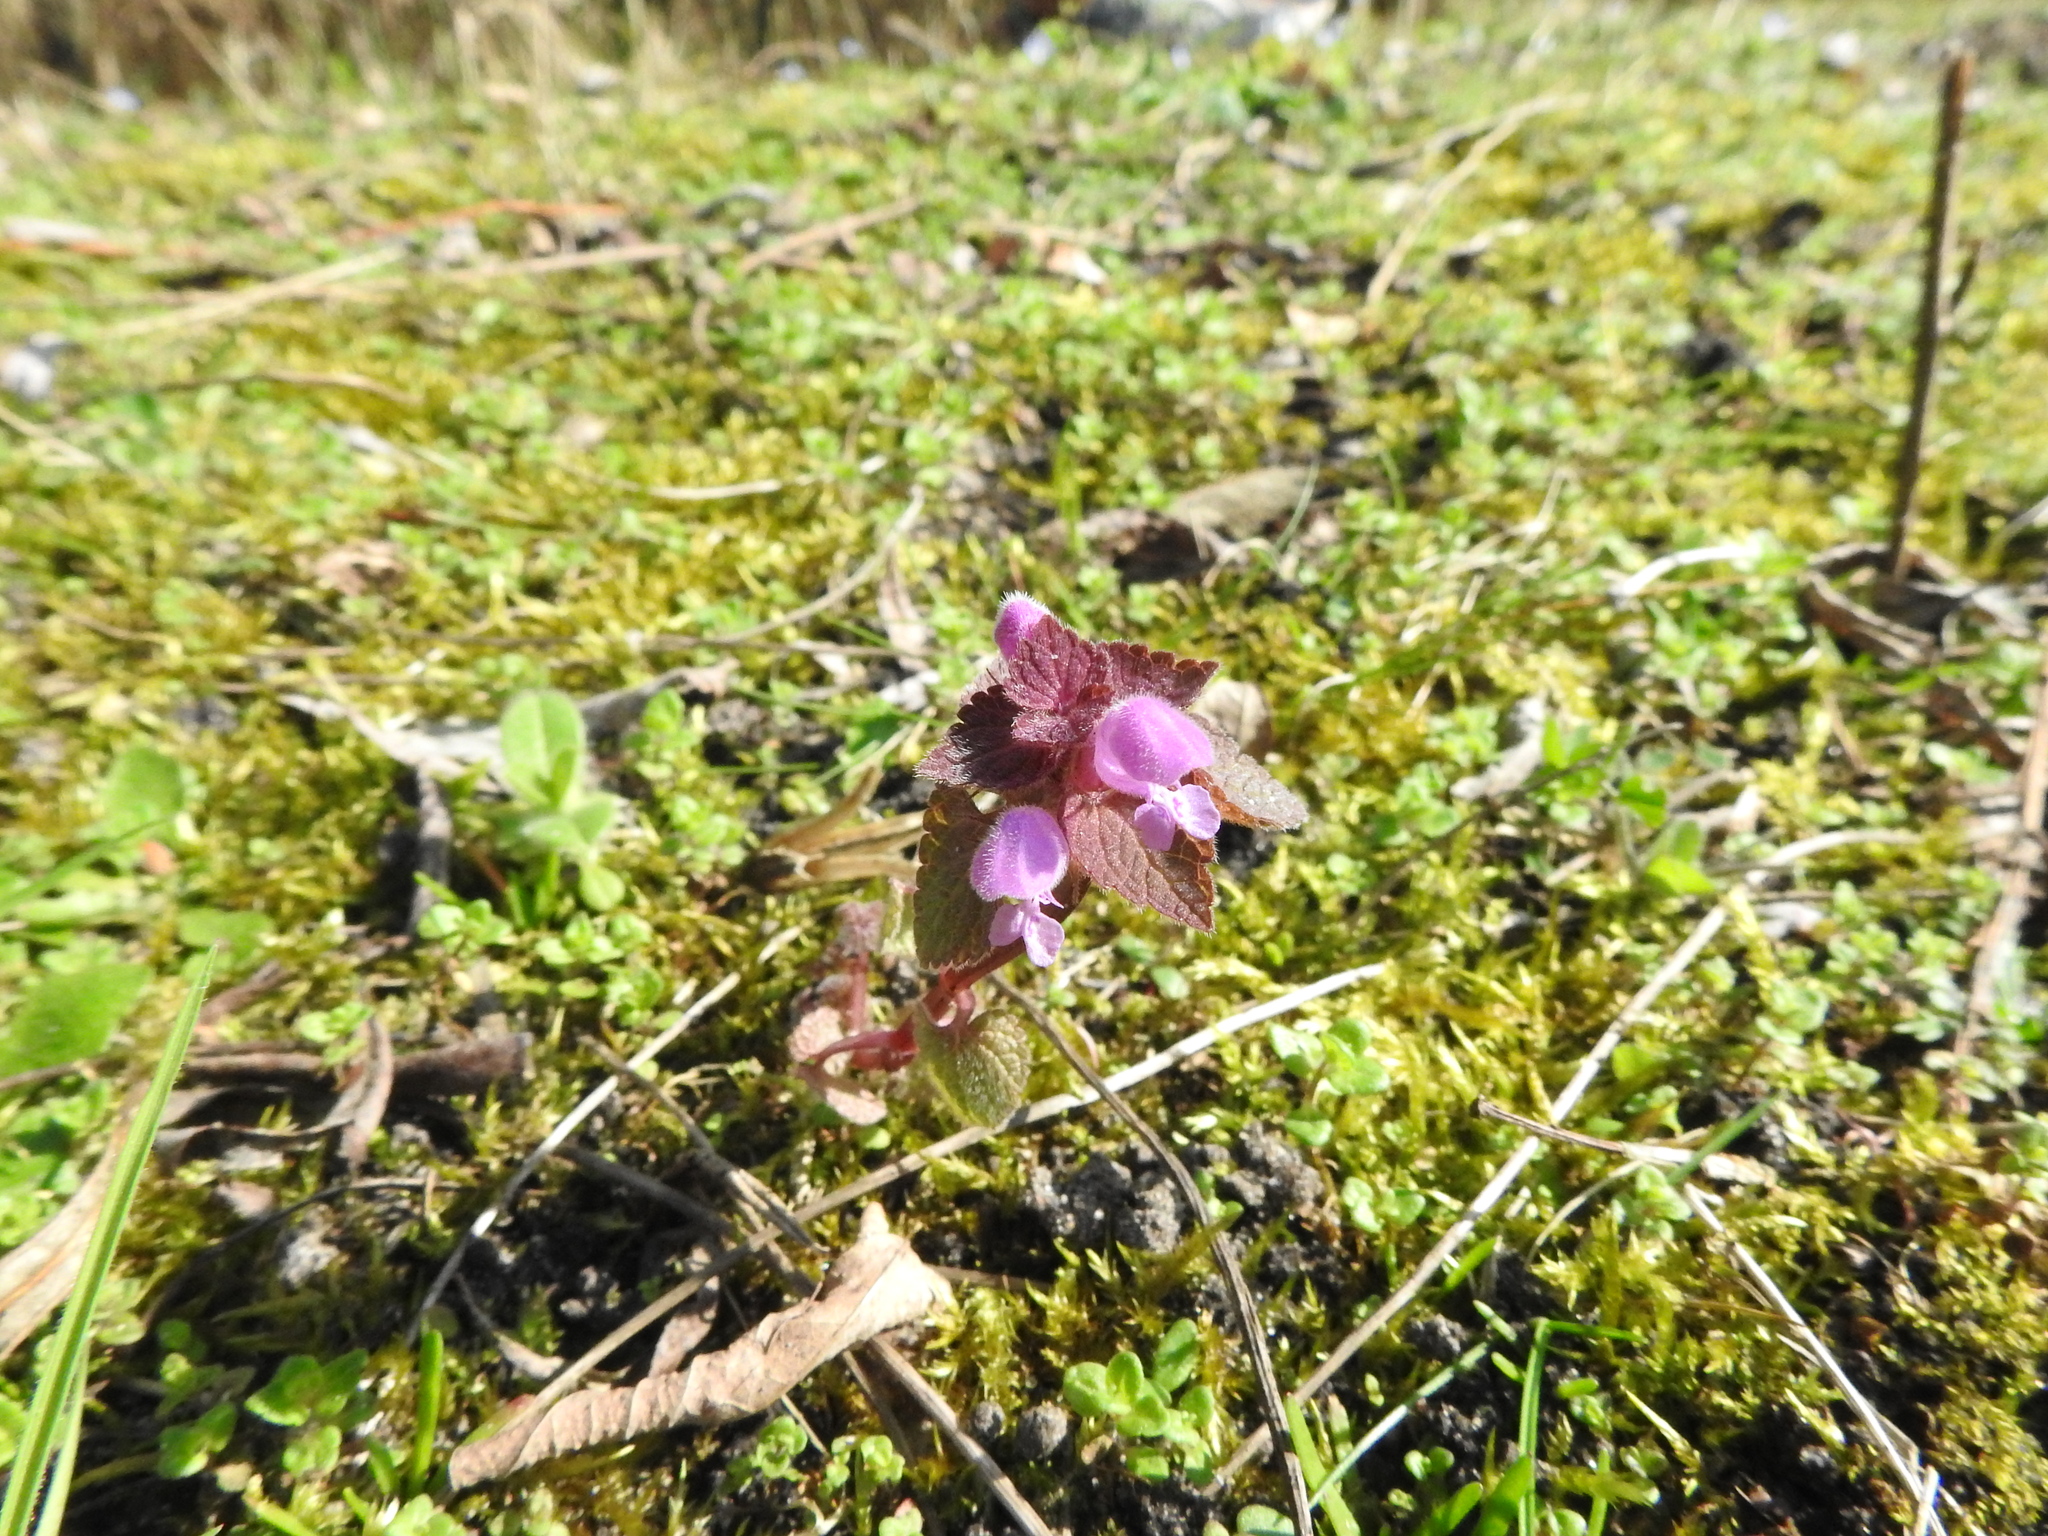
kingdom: Plantae
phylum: Tracheophyta
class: Magnoliopsida
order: Lamiales
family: Lamiaceae
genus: Lamium
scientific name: Lamium purpureum
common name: Red dead-nettle
